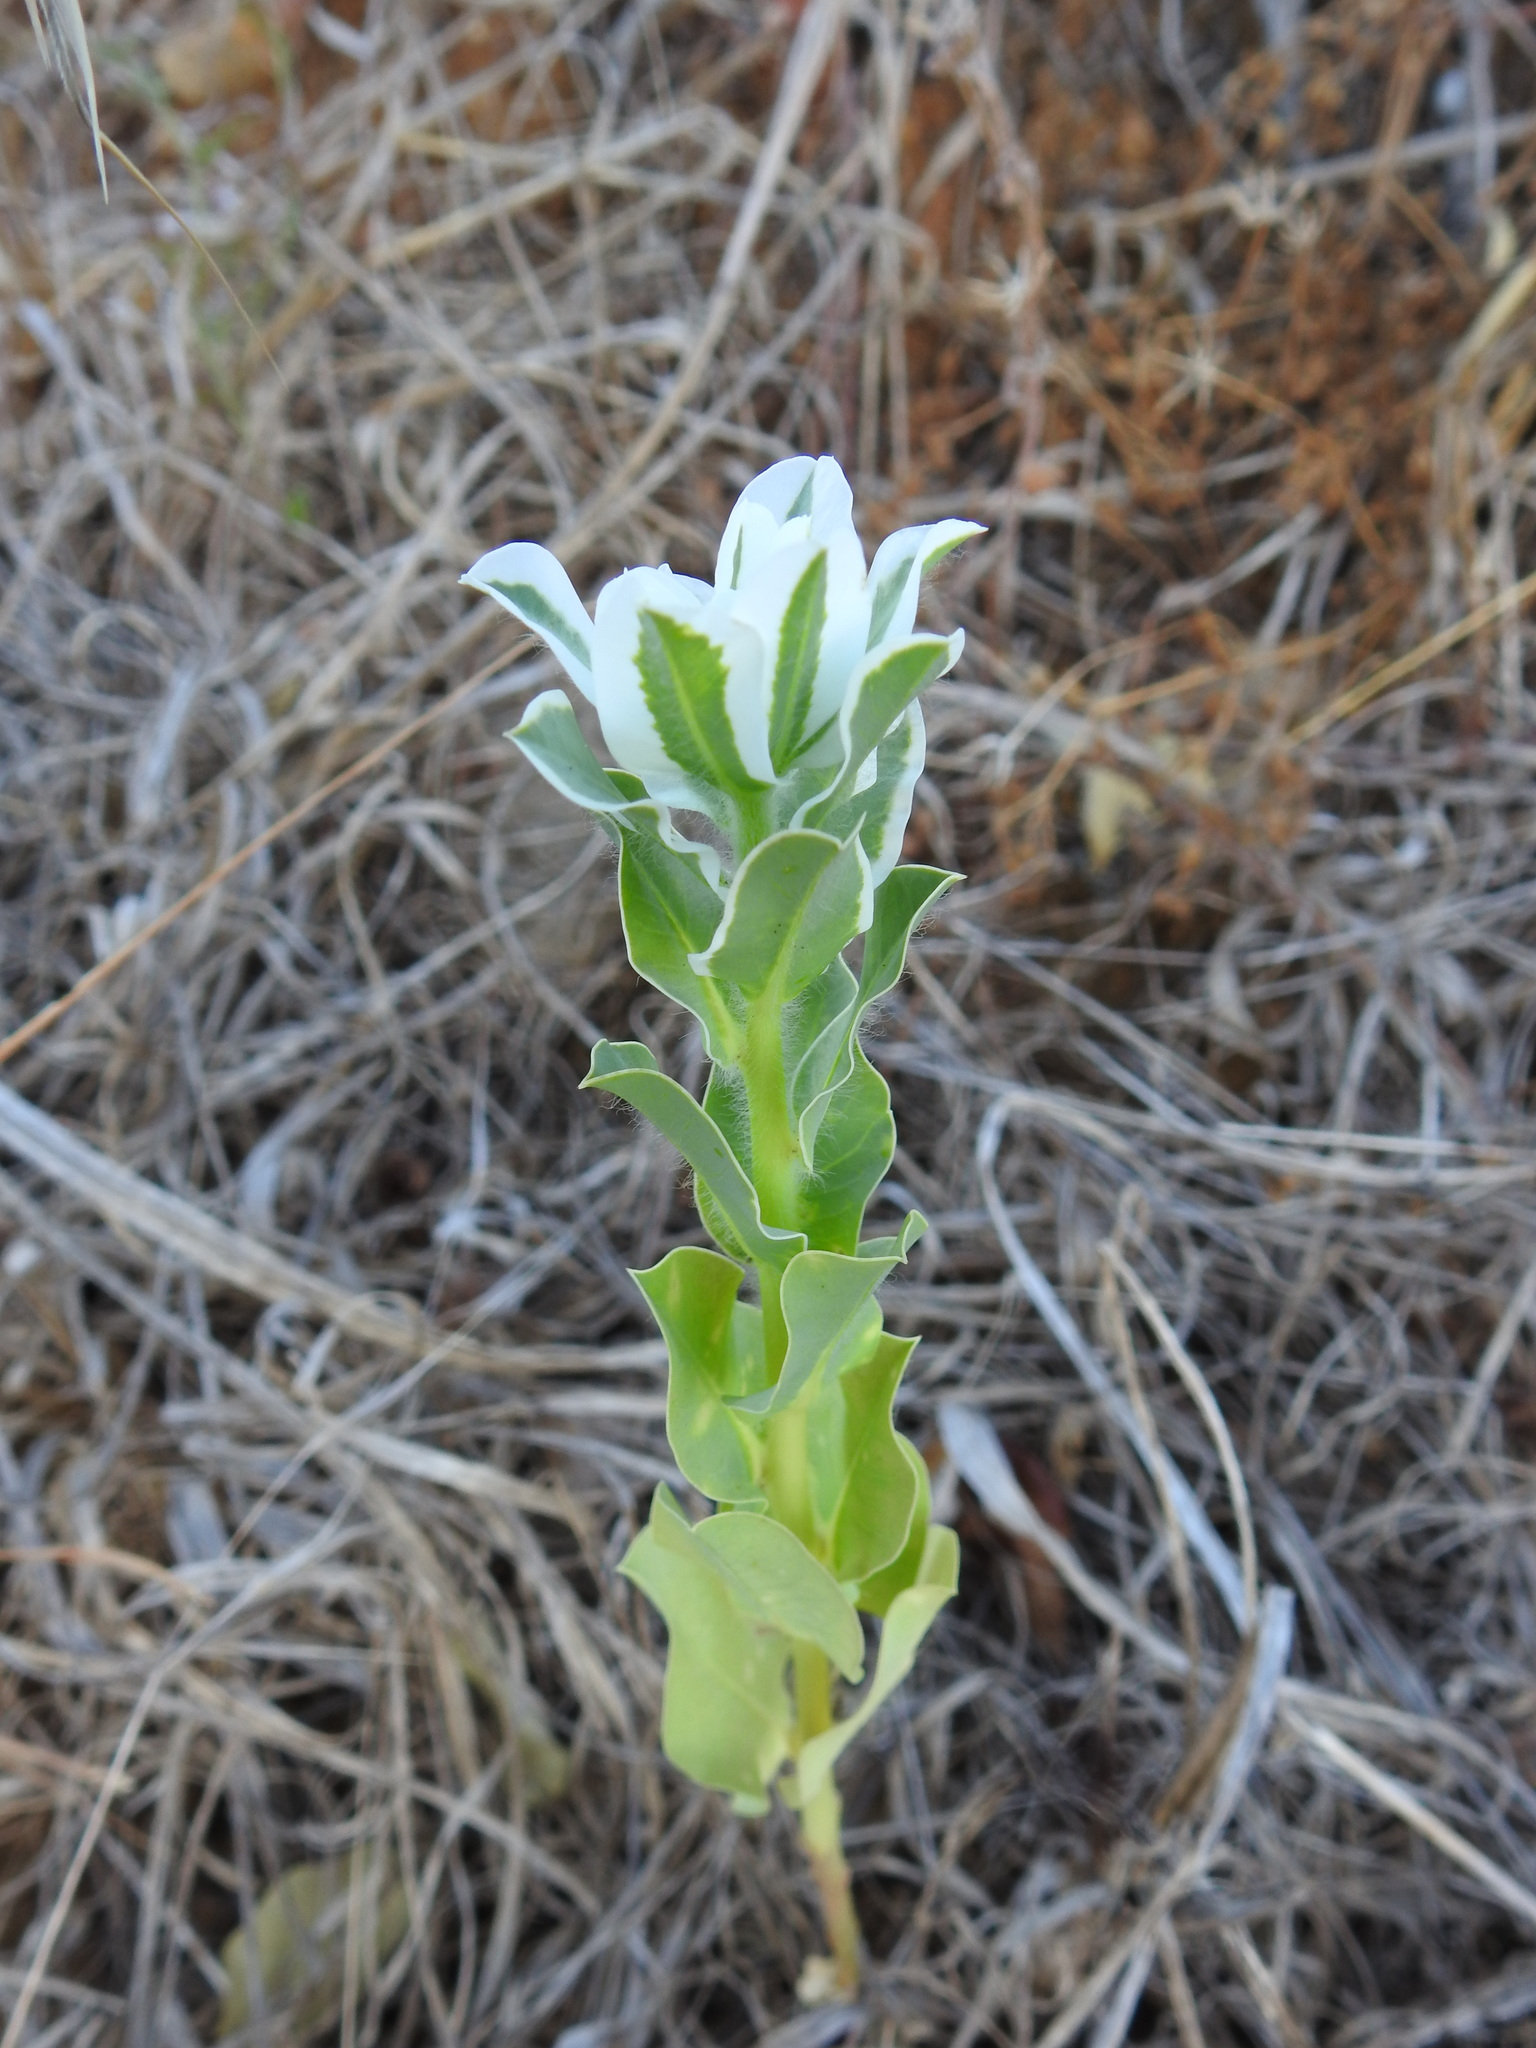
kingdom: Plantae
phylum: Tracheophyta
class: Magnoliopsida
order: Malpighiales
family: Euphorbiaceae
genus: Euphorbia
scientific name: Euphorbia marginata
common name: Ghostweed
